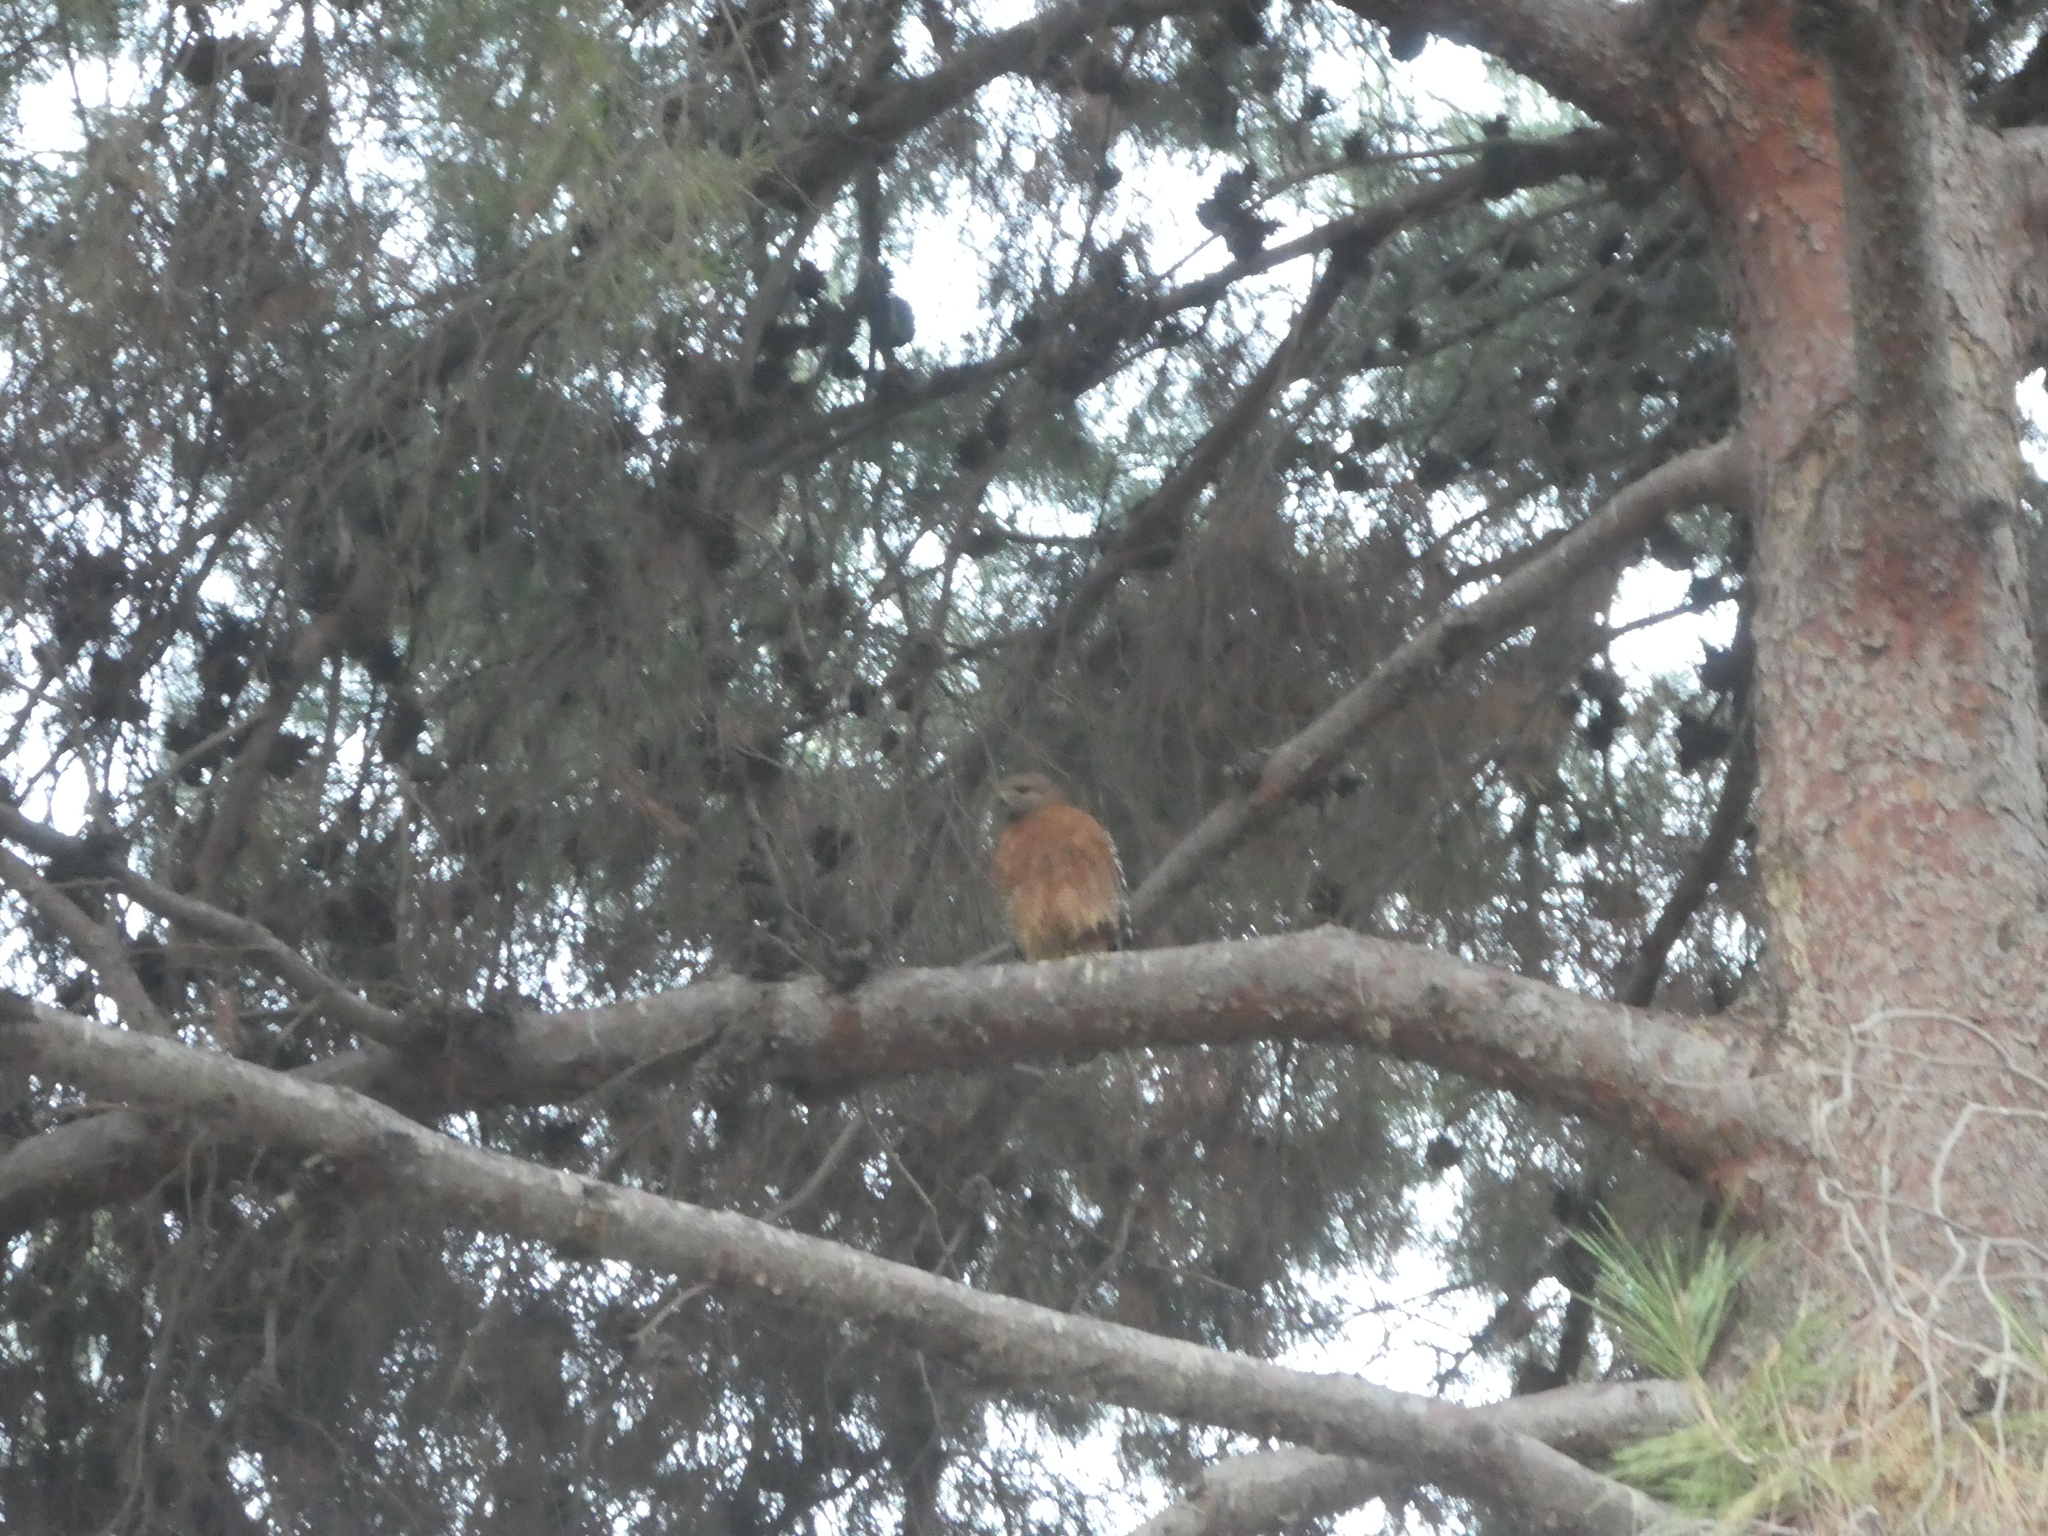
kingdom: Animalia
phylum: Chordata
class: Aves
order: Accipitriformes
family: Accipitridae
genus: Buteo
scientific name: Buteo lineatus
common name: Red-shouldered hawk
